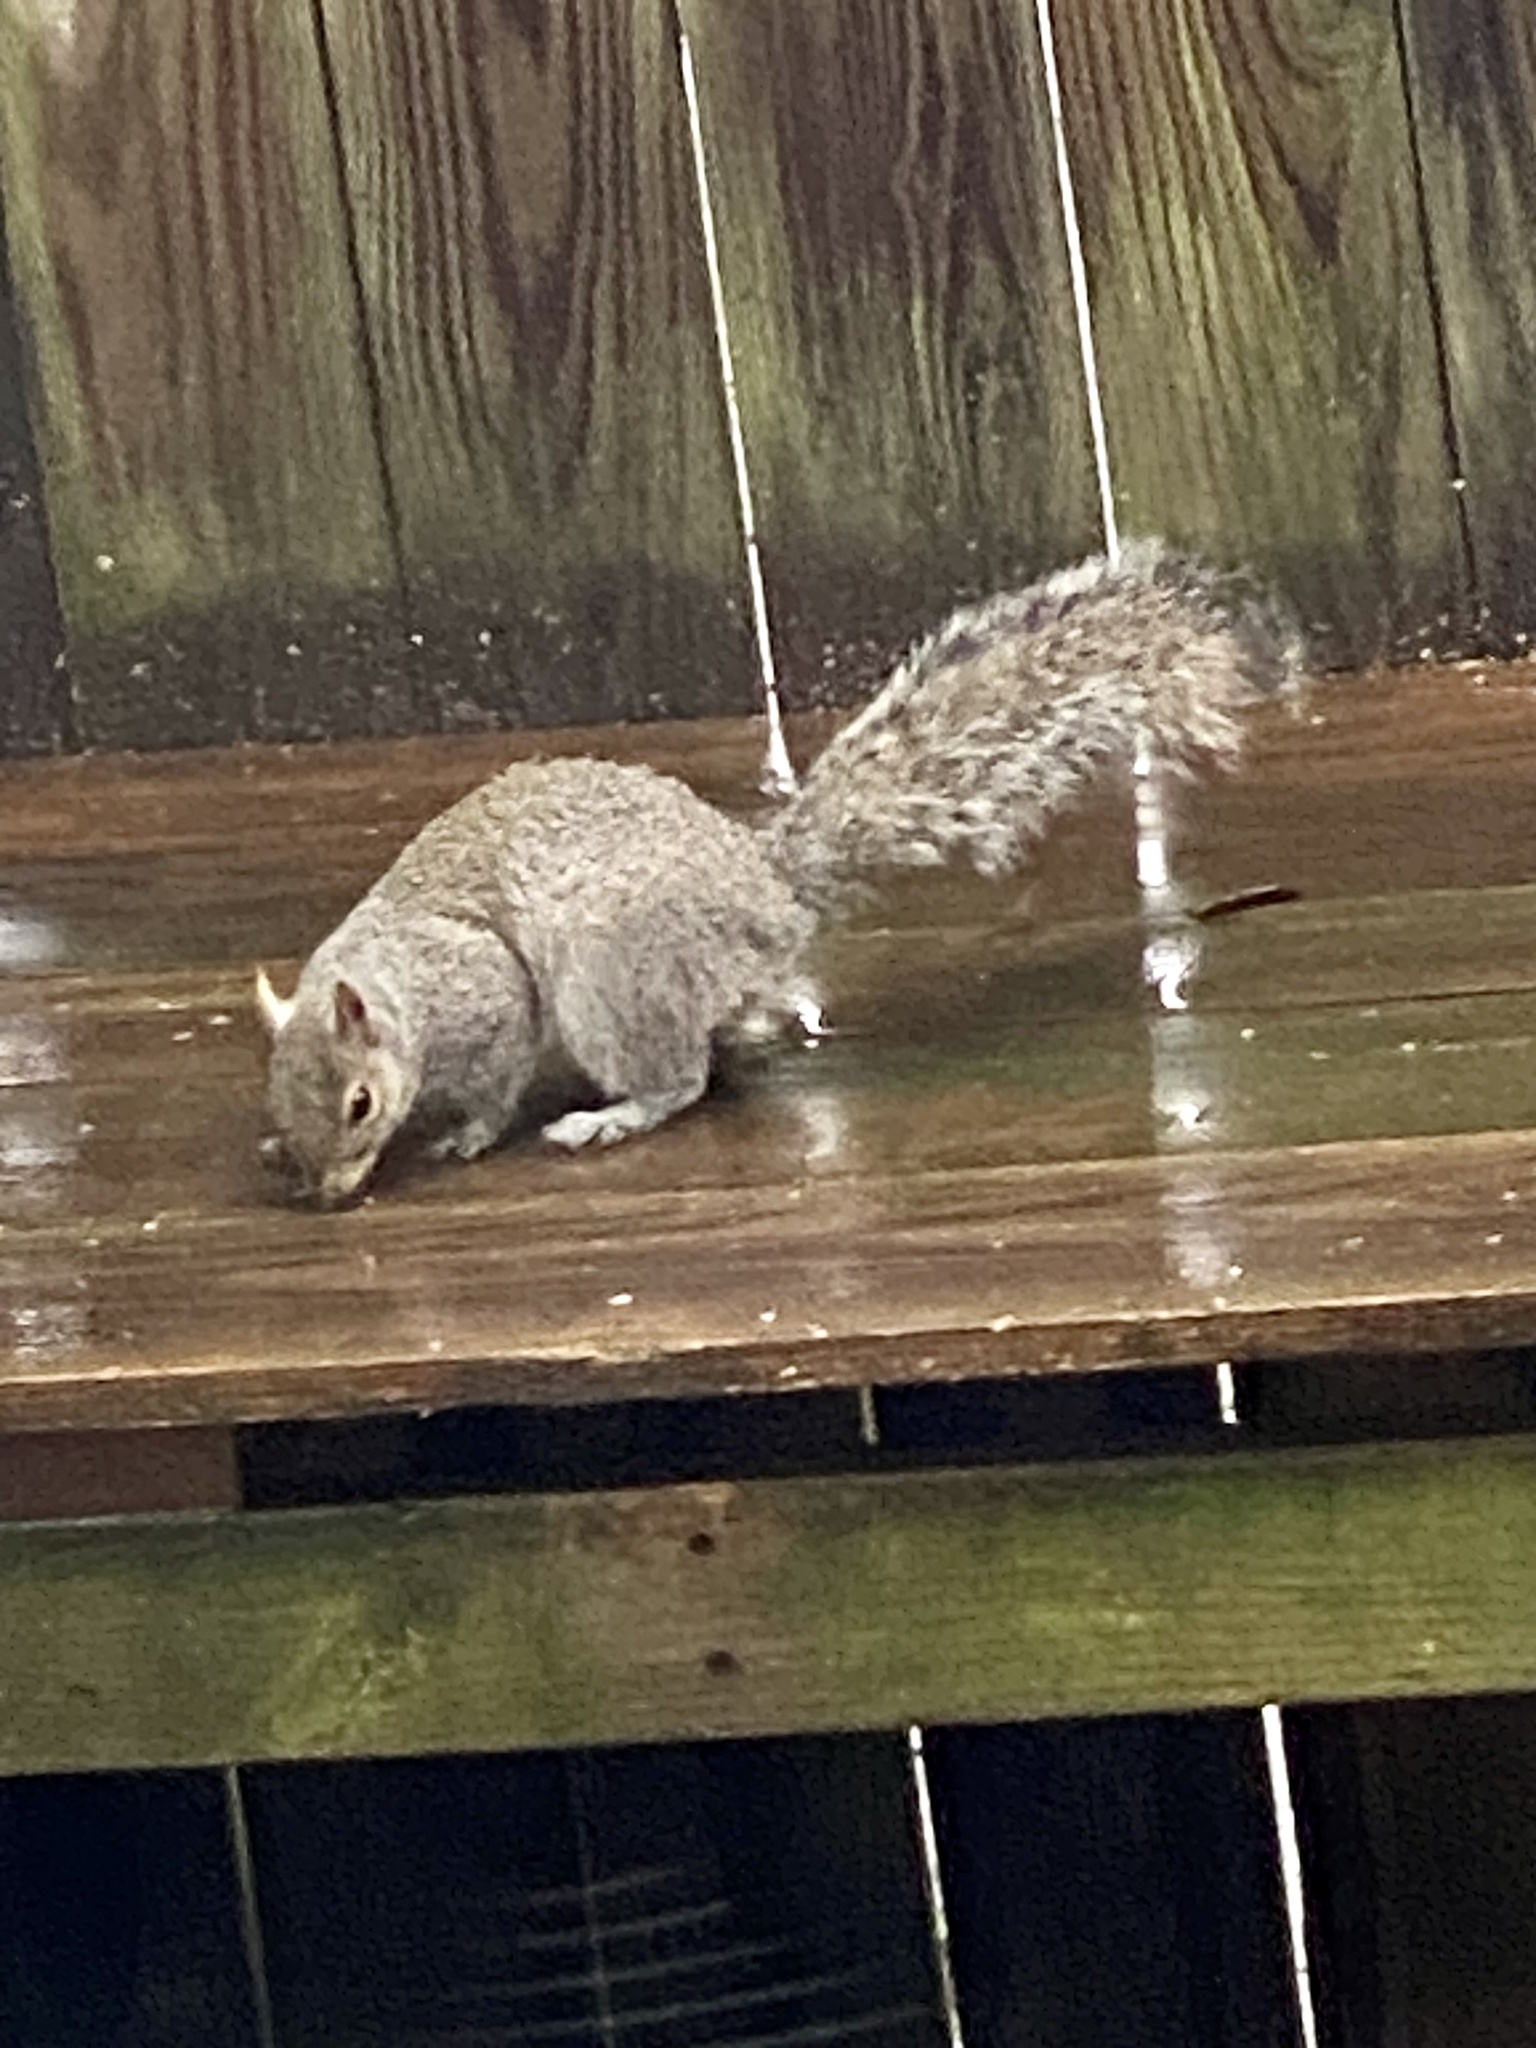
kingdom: Animalia
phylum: Chordata
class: Mammalia
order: Rodentia
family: Sciuridae
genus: Sciurus
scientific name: Sciurus carolinensis
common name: Eastern gray squirrel
